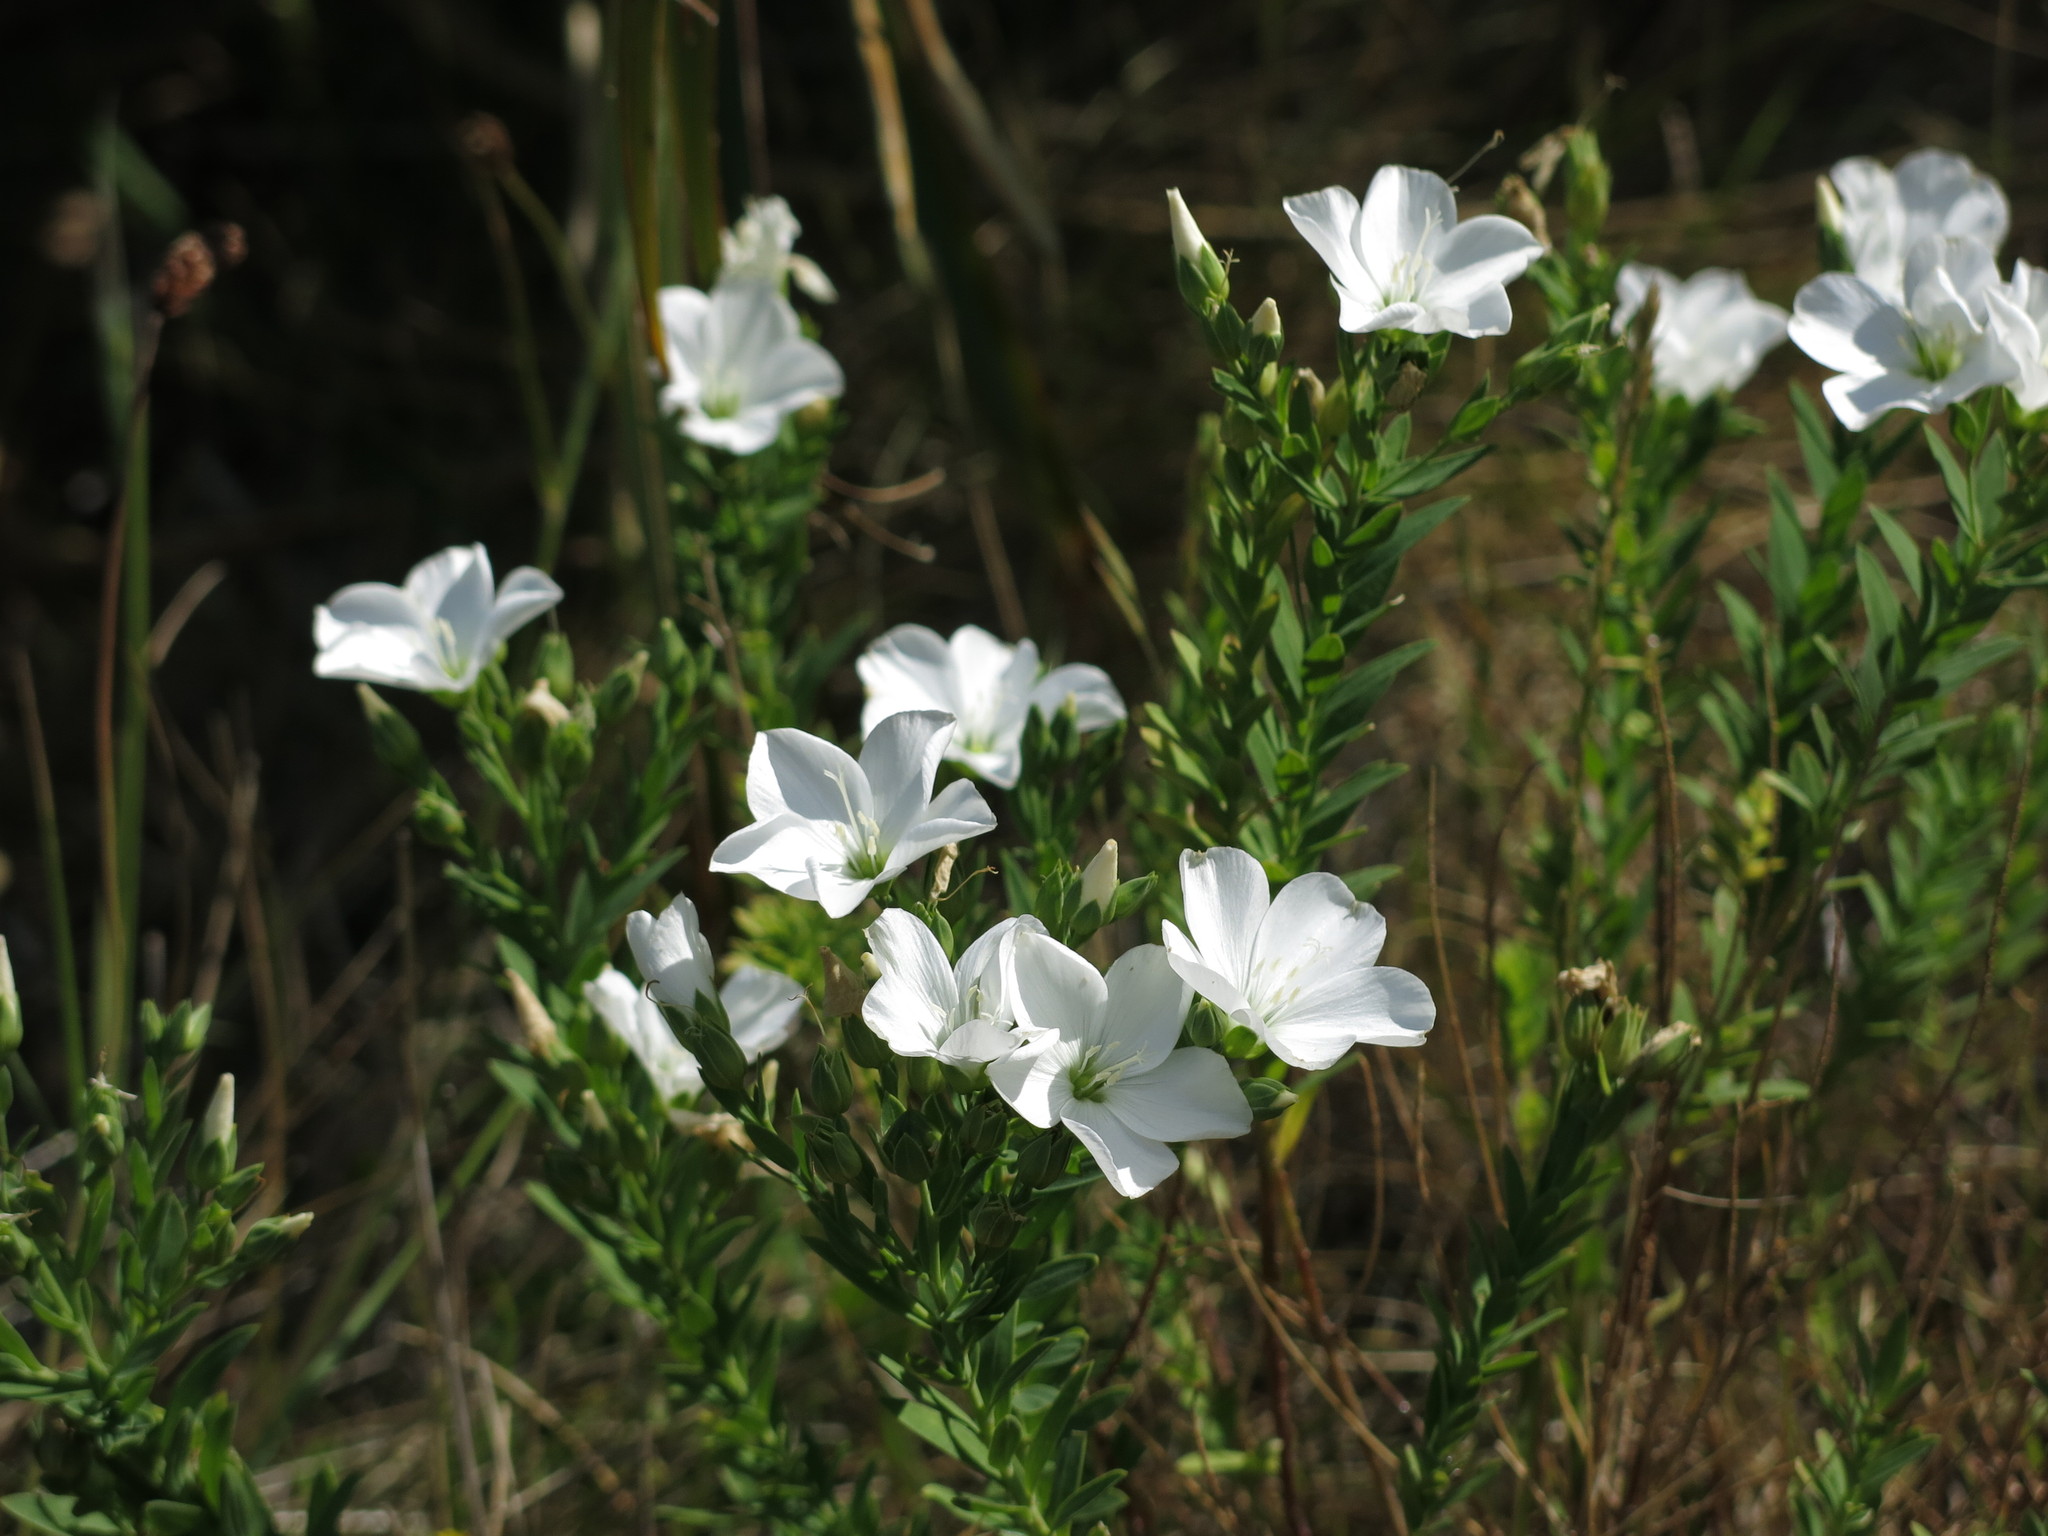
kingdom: Plantae
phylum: Tracheophyta
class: Magnoliopsida
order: Malpighiales
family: Linaceae
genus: Linum
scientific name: Linum monogynum
